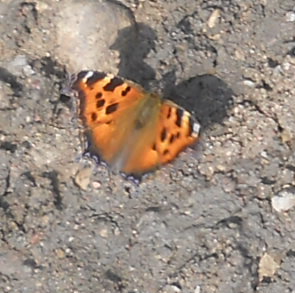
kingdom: Animalia
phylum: Arthropoda
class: Insecta
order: Lepidoptera
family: Nymphalidae
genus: Nymphalis
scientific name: Nymphalis xanthomelas
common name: Scarce tortoiseshell
